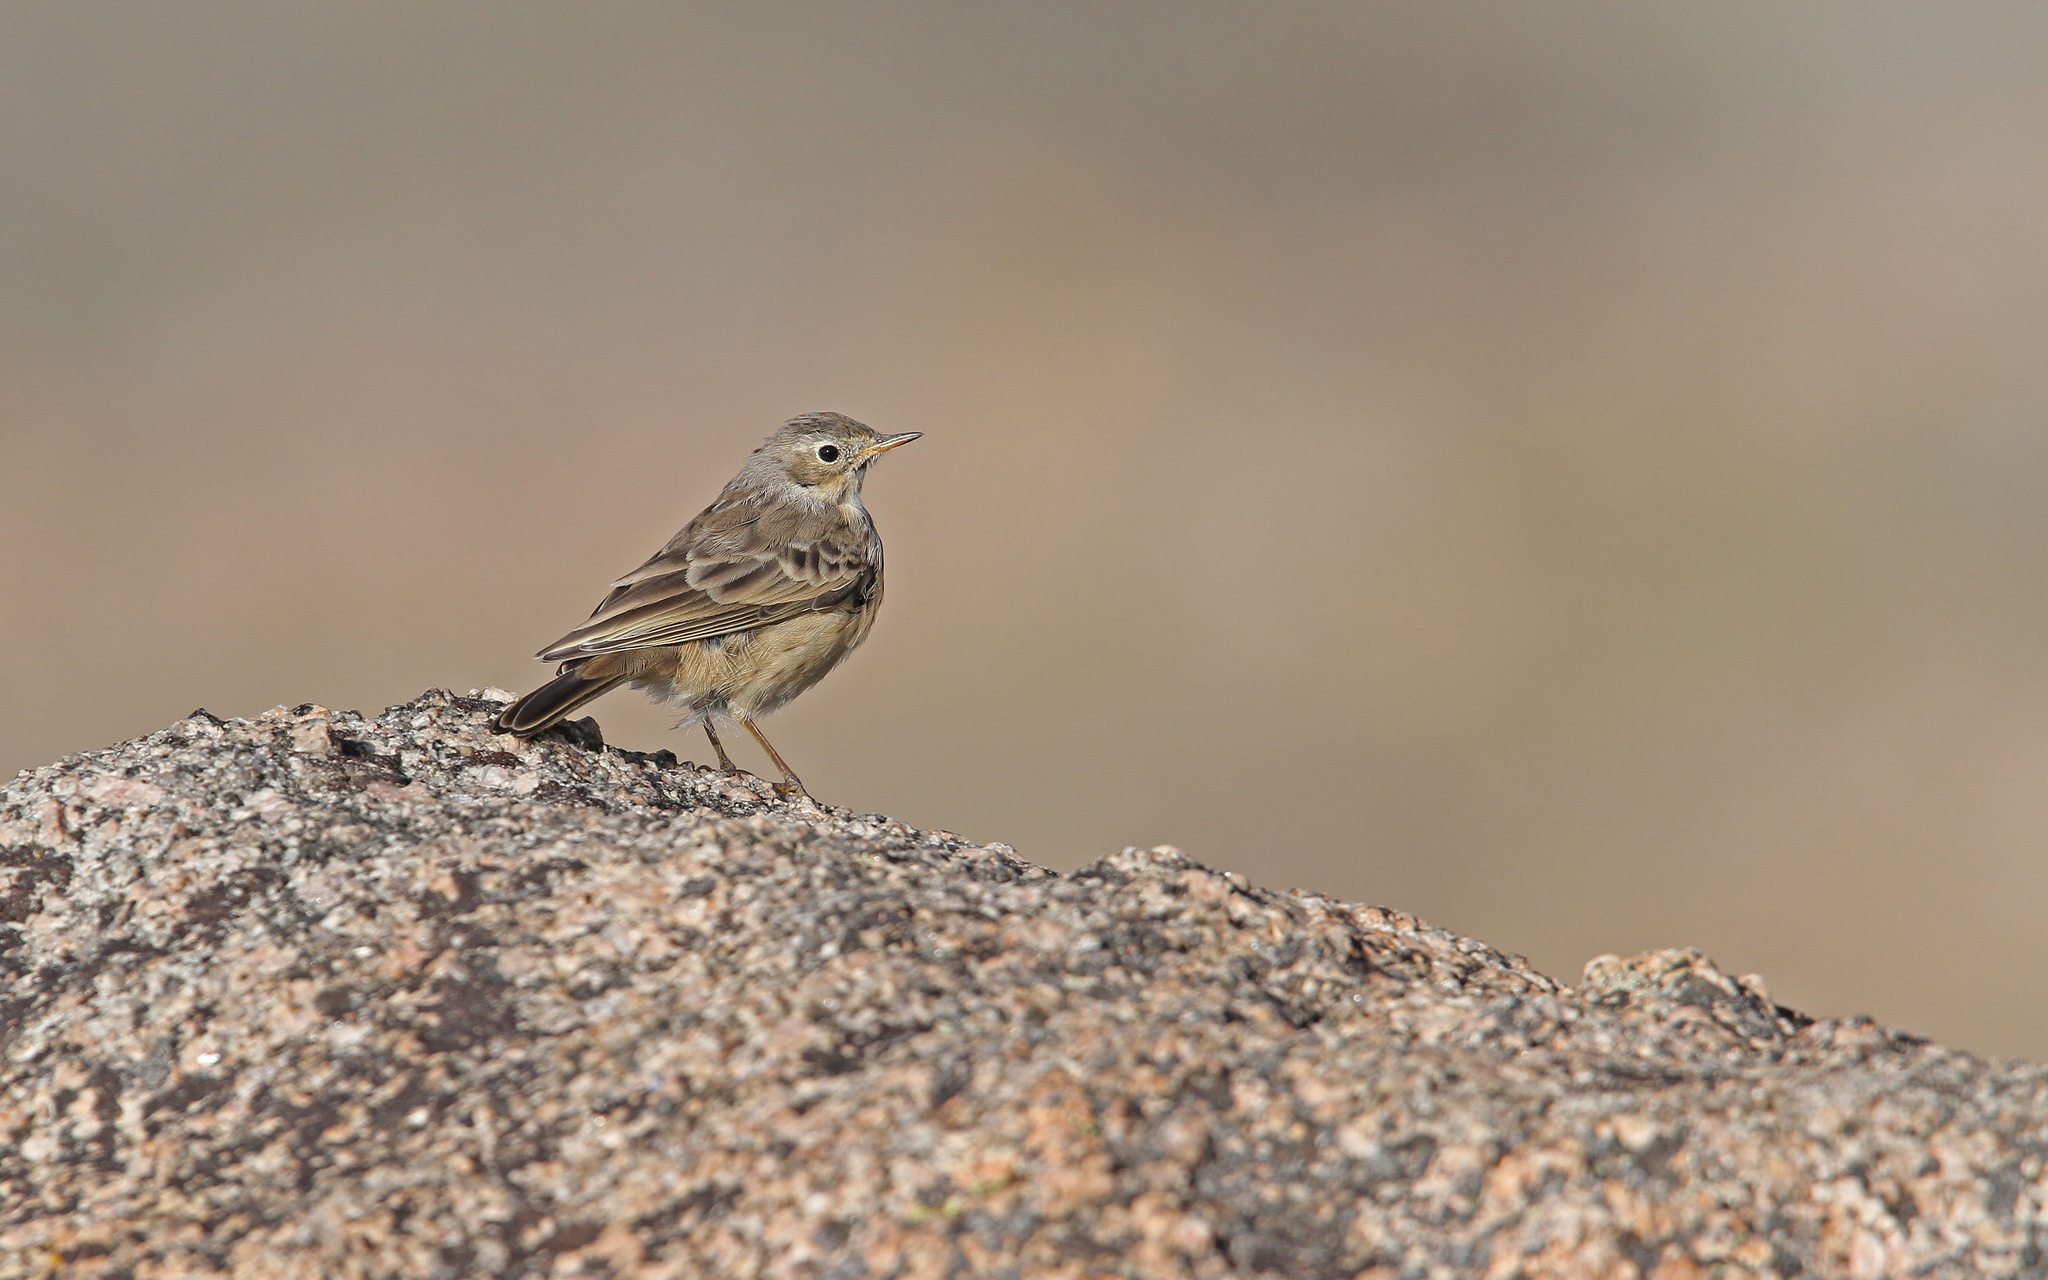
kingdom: Animalia
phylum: Chordata
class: Aves
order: Passeriformes
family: Motacillidae
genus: Anthus
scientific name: Anthus rubescens
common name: Buff-bellied pipit
